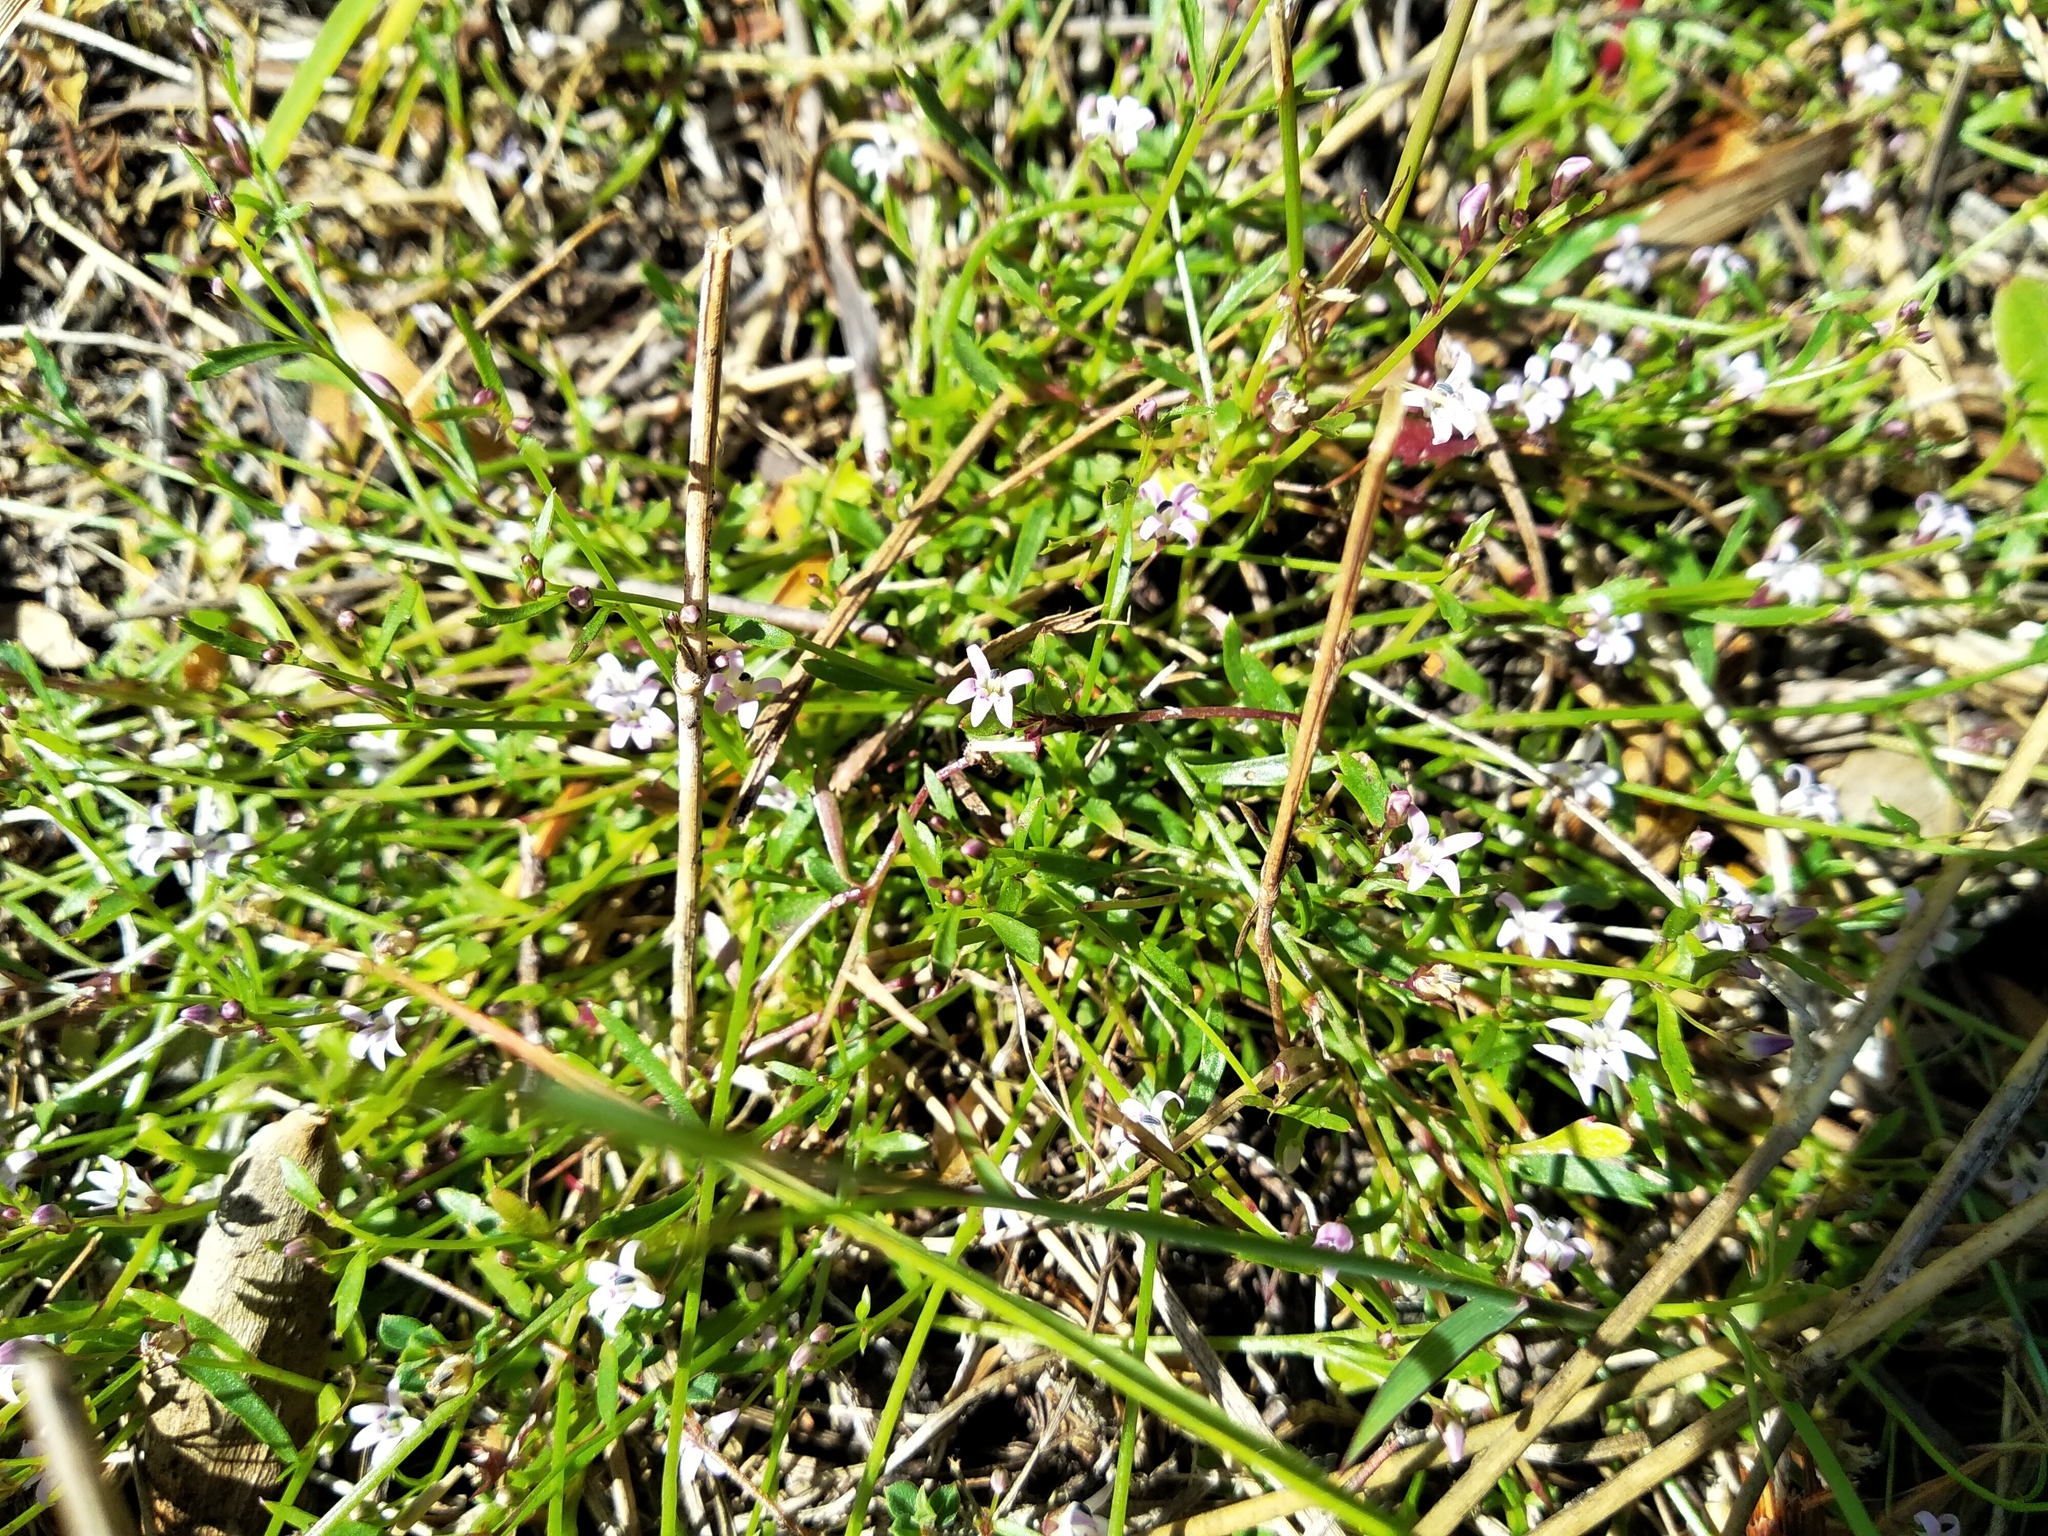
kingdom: Plantae
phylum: Tracheophyta
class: Magnoliopsida
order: Asterales
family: Campanulaceae
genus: Lobelia
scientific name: Lobelia eckloniana
